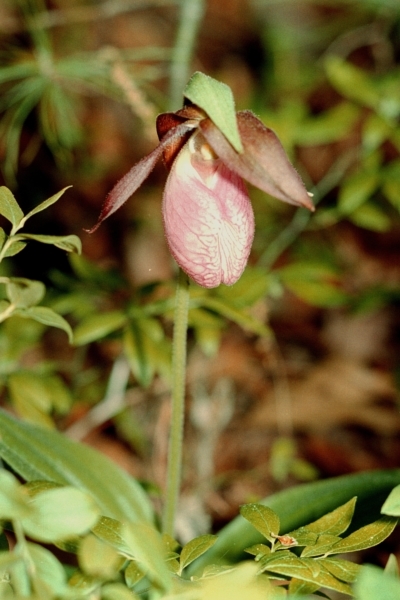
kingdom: Plantae
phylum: Tracheophyta
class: Liliopsida
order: Asparagales
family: Orchidaceae
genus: Cypripedium
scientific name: Cypripedium acaule
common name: Pink lady's-slipper
